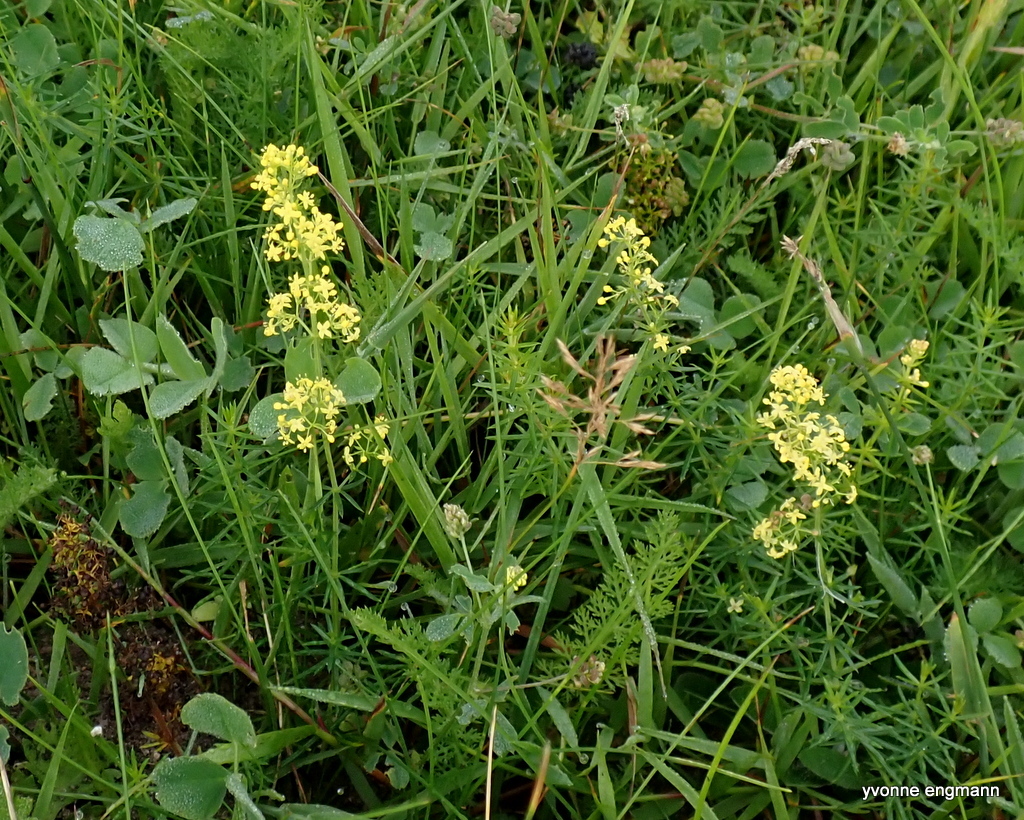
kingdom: Plantae
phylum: Tracheophyta
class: Magnoliopsida
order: Gentianales
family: Rubiaceae
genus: Galium
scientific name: Galium verum
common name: Lady's bedstraw
